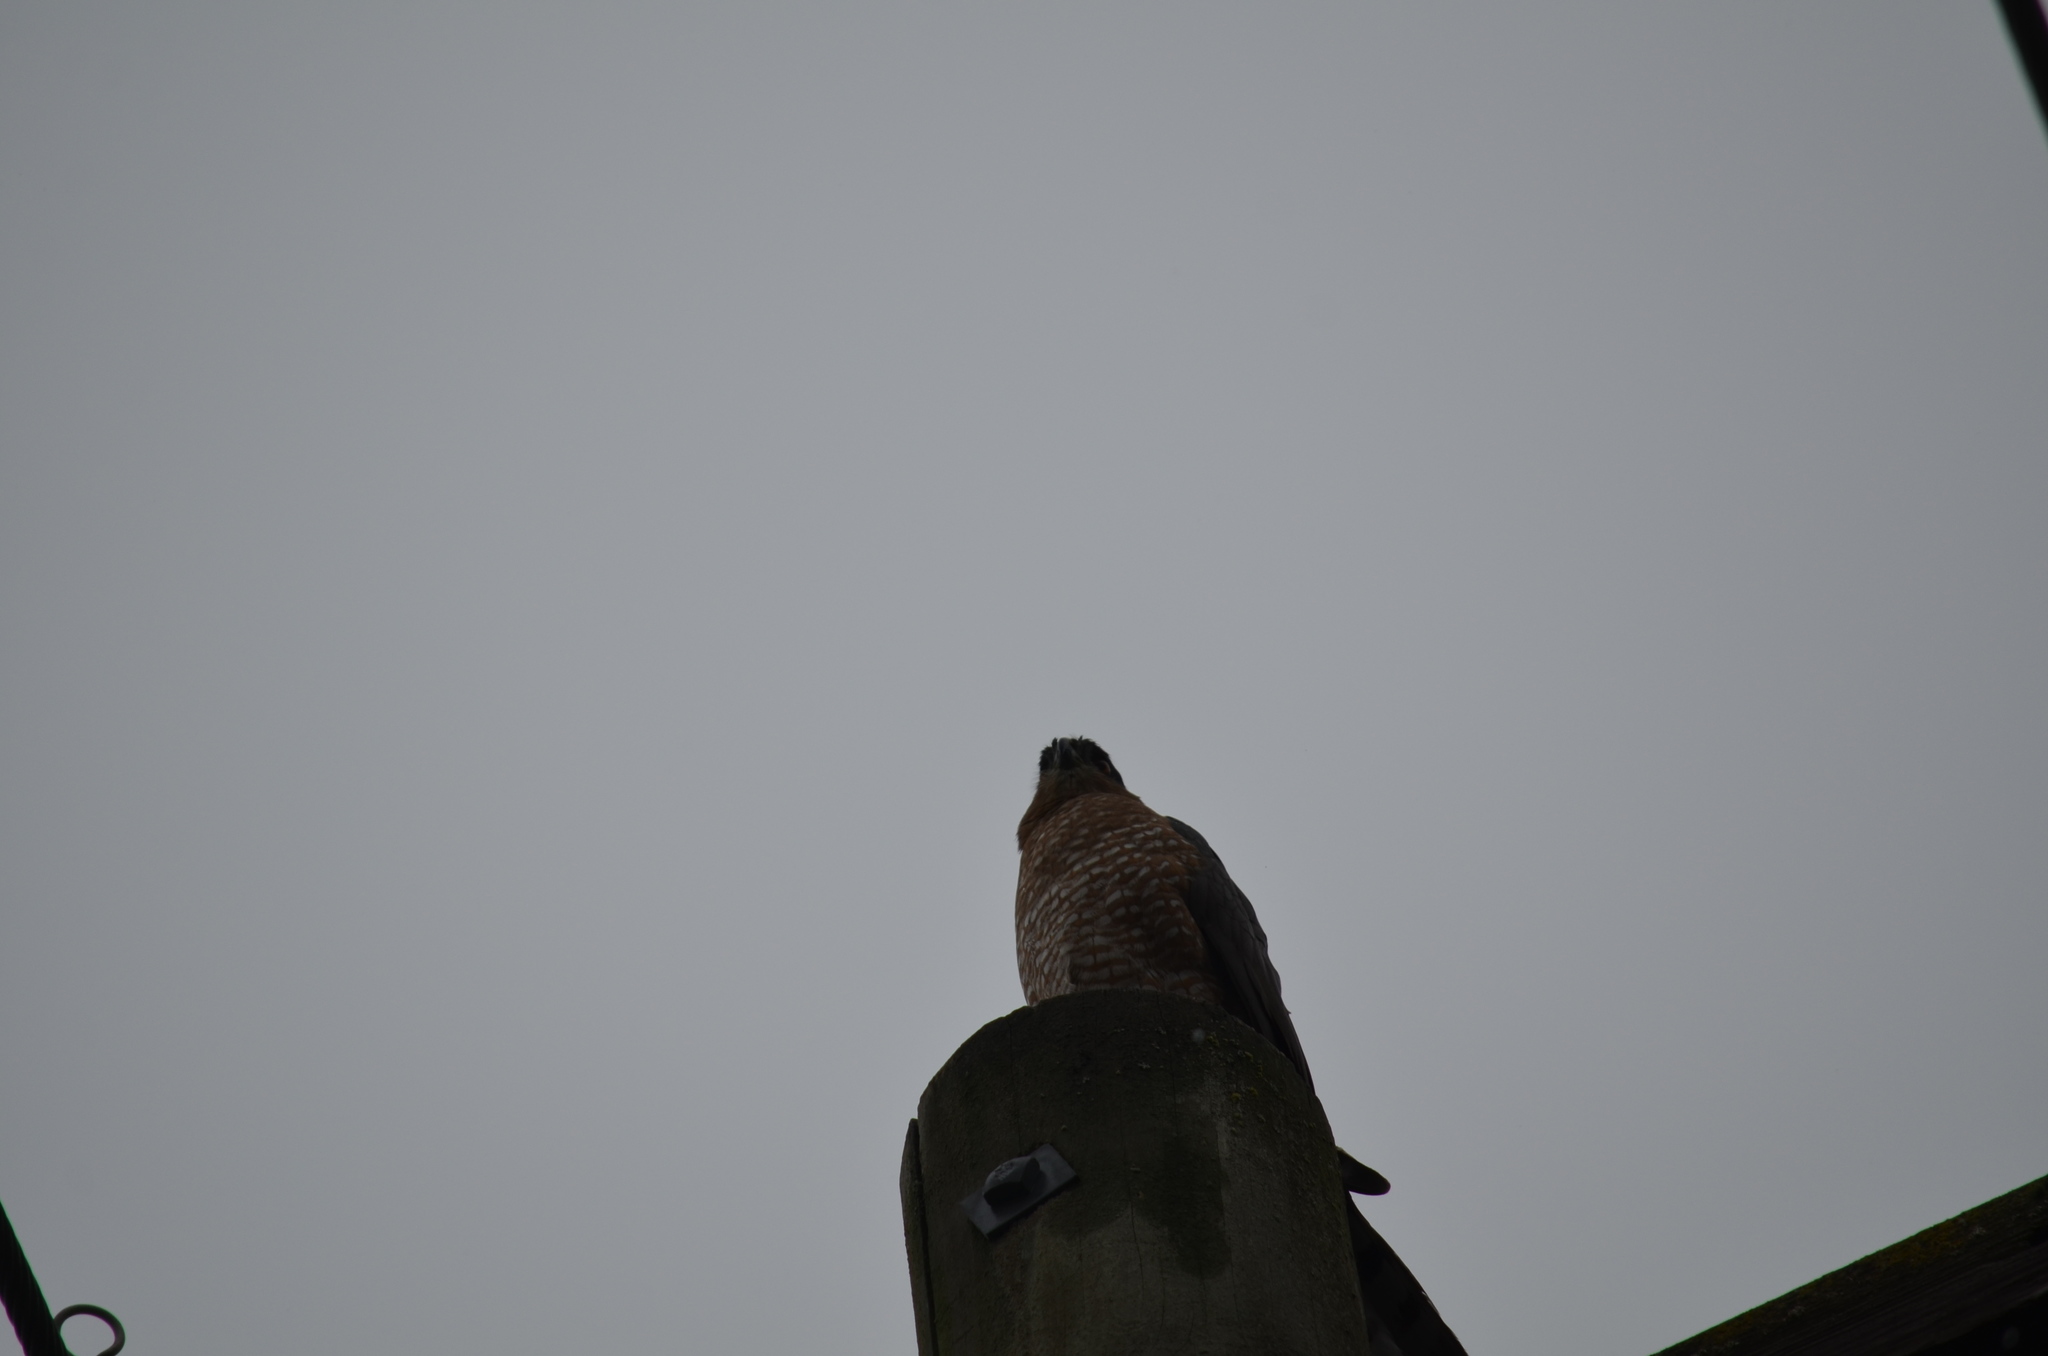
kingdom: Animalia
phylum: Chordata
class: Aves
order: Accipitriformes
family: Accipitridae
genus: Accipiter
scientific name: Accipiter cooperii
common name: Cooper's hawk
